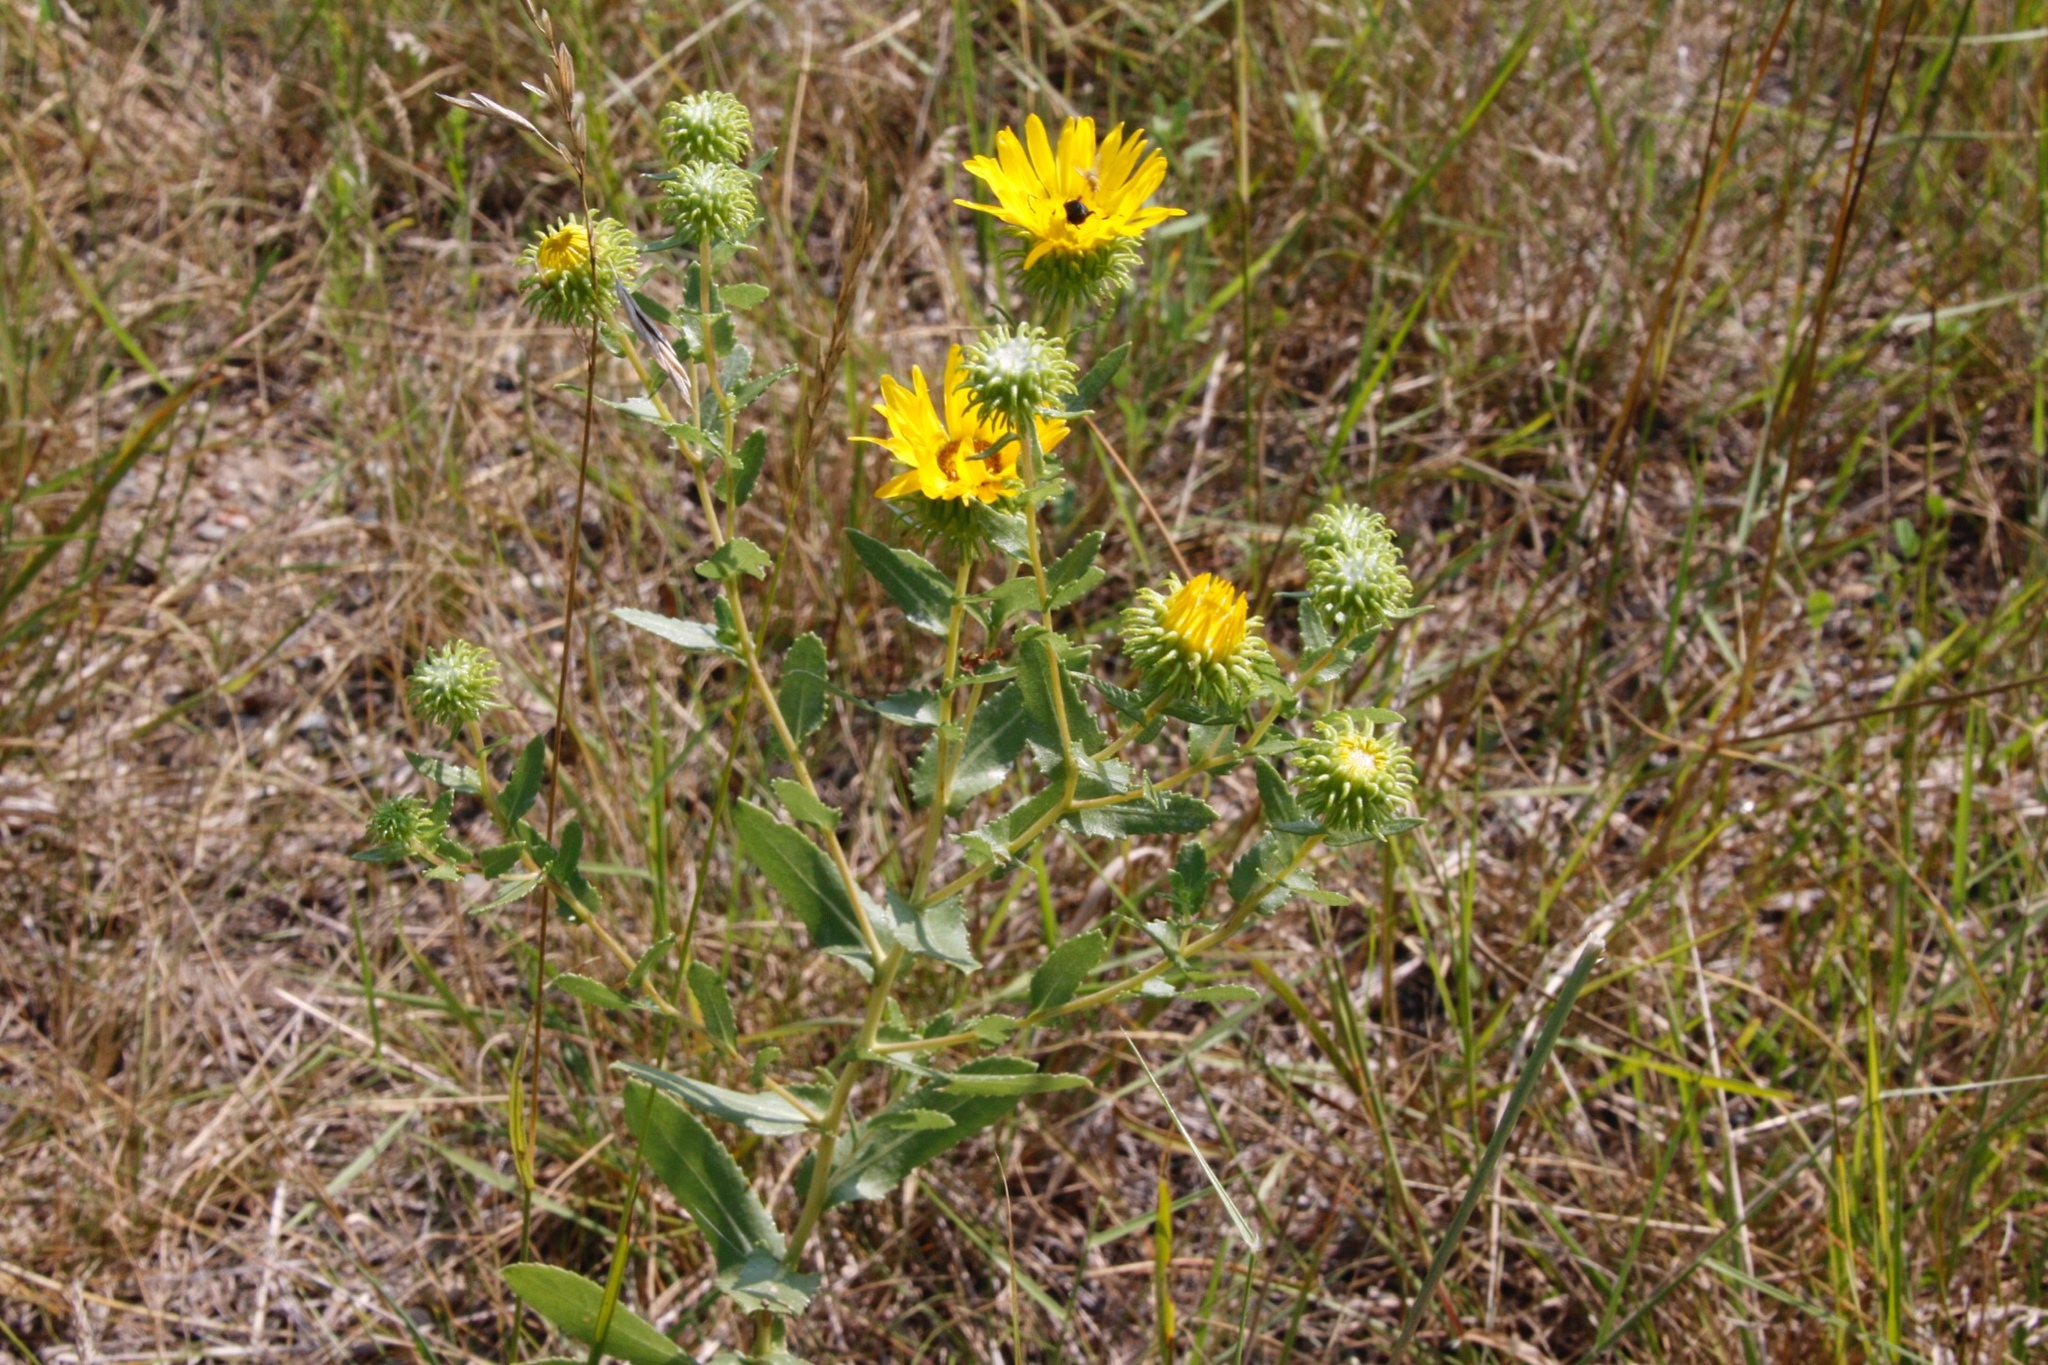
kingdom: Plantae
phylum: Tracheophyta
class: Magnoliopsida
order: Asterales
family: Asteraceae
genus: Grindelia
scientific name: Grindelia squarrosa
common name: Curly-cup gumweed
